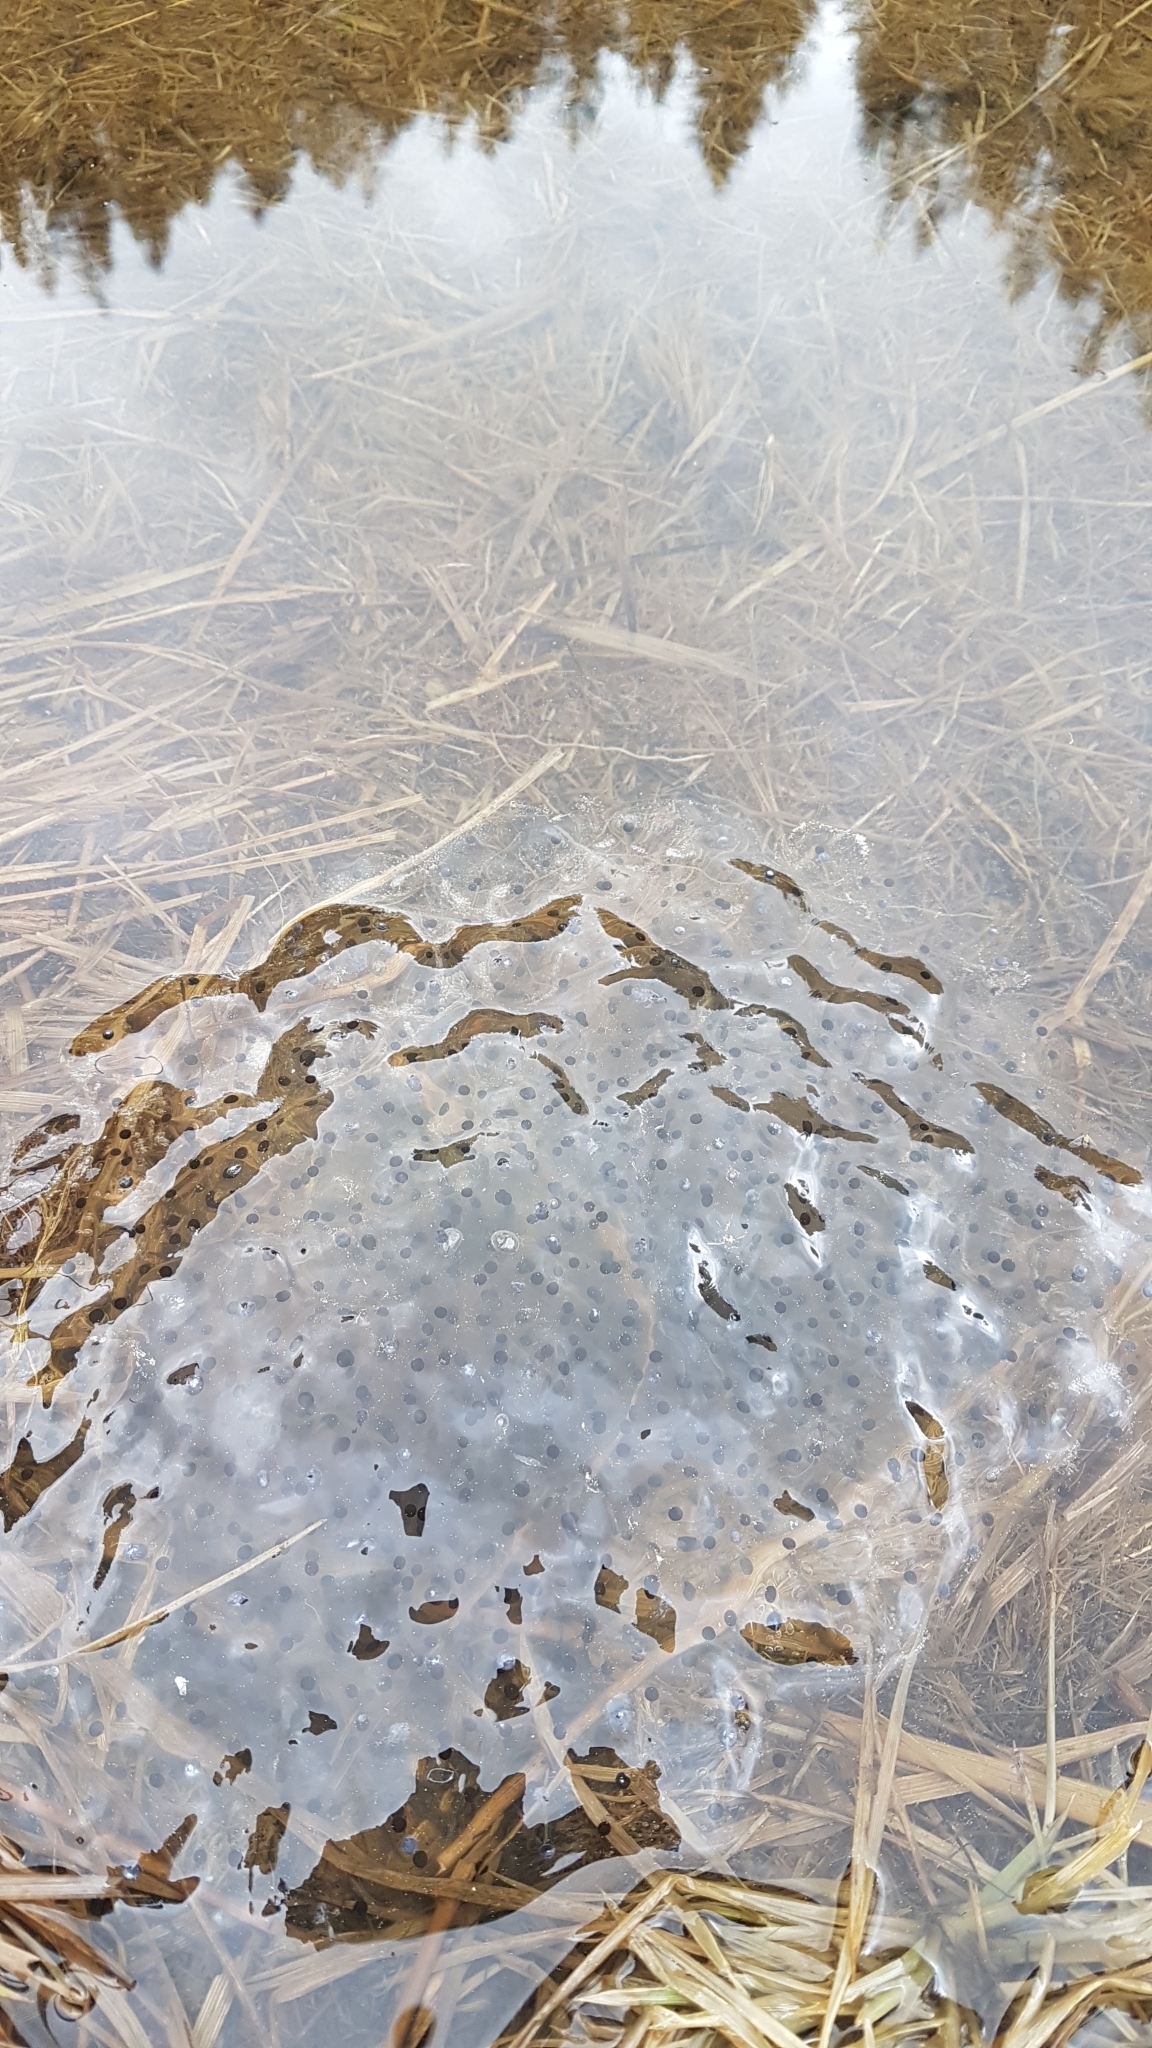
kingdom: Animalia
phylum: Chordata
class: Amphibia
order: Anura
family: Ranidae
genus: Rana
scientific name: Rana temporaria
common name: Common frog
